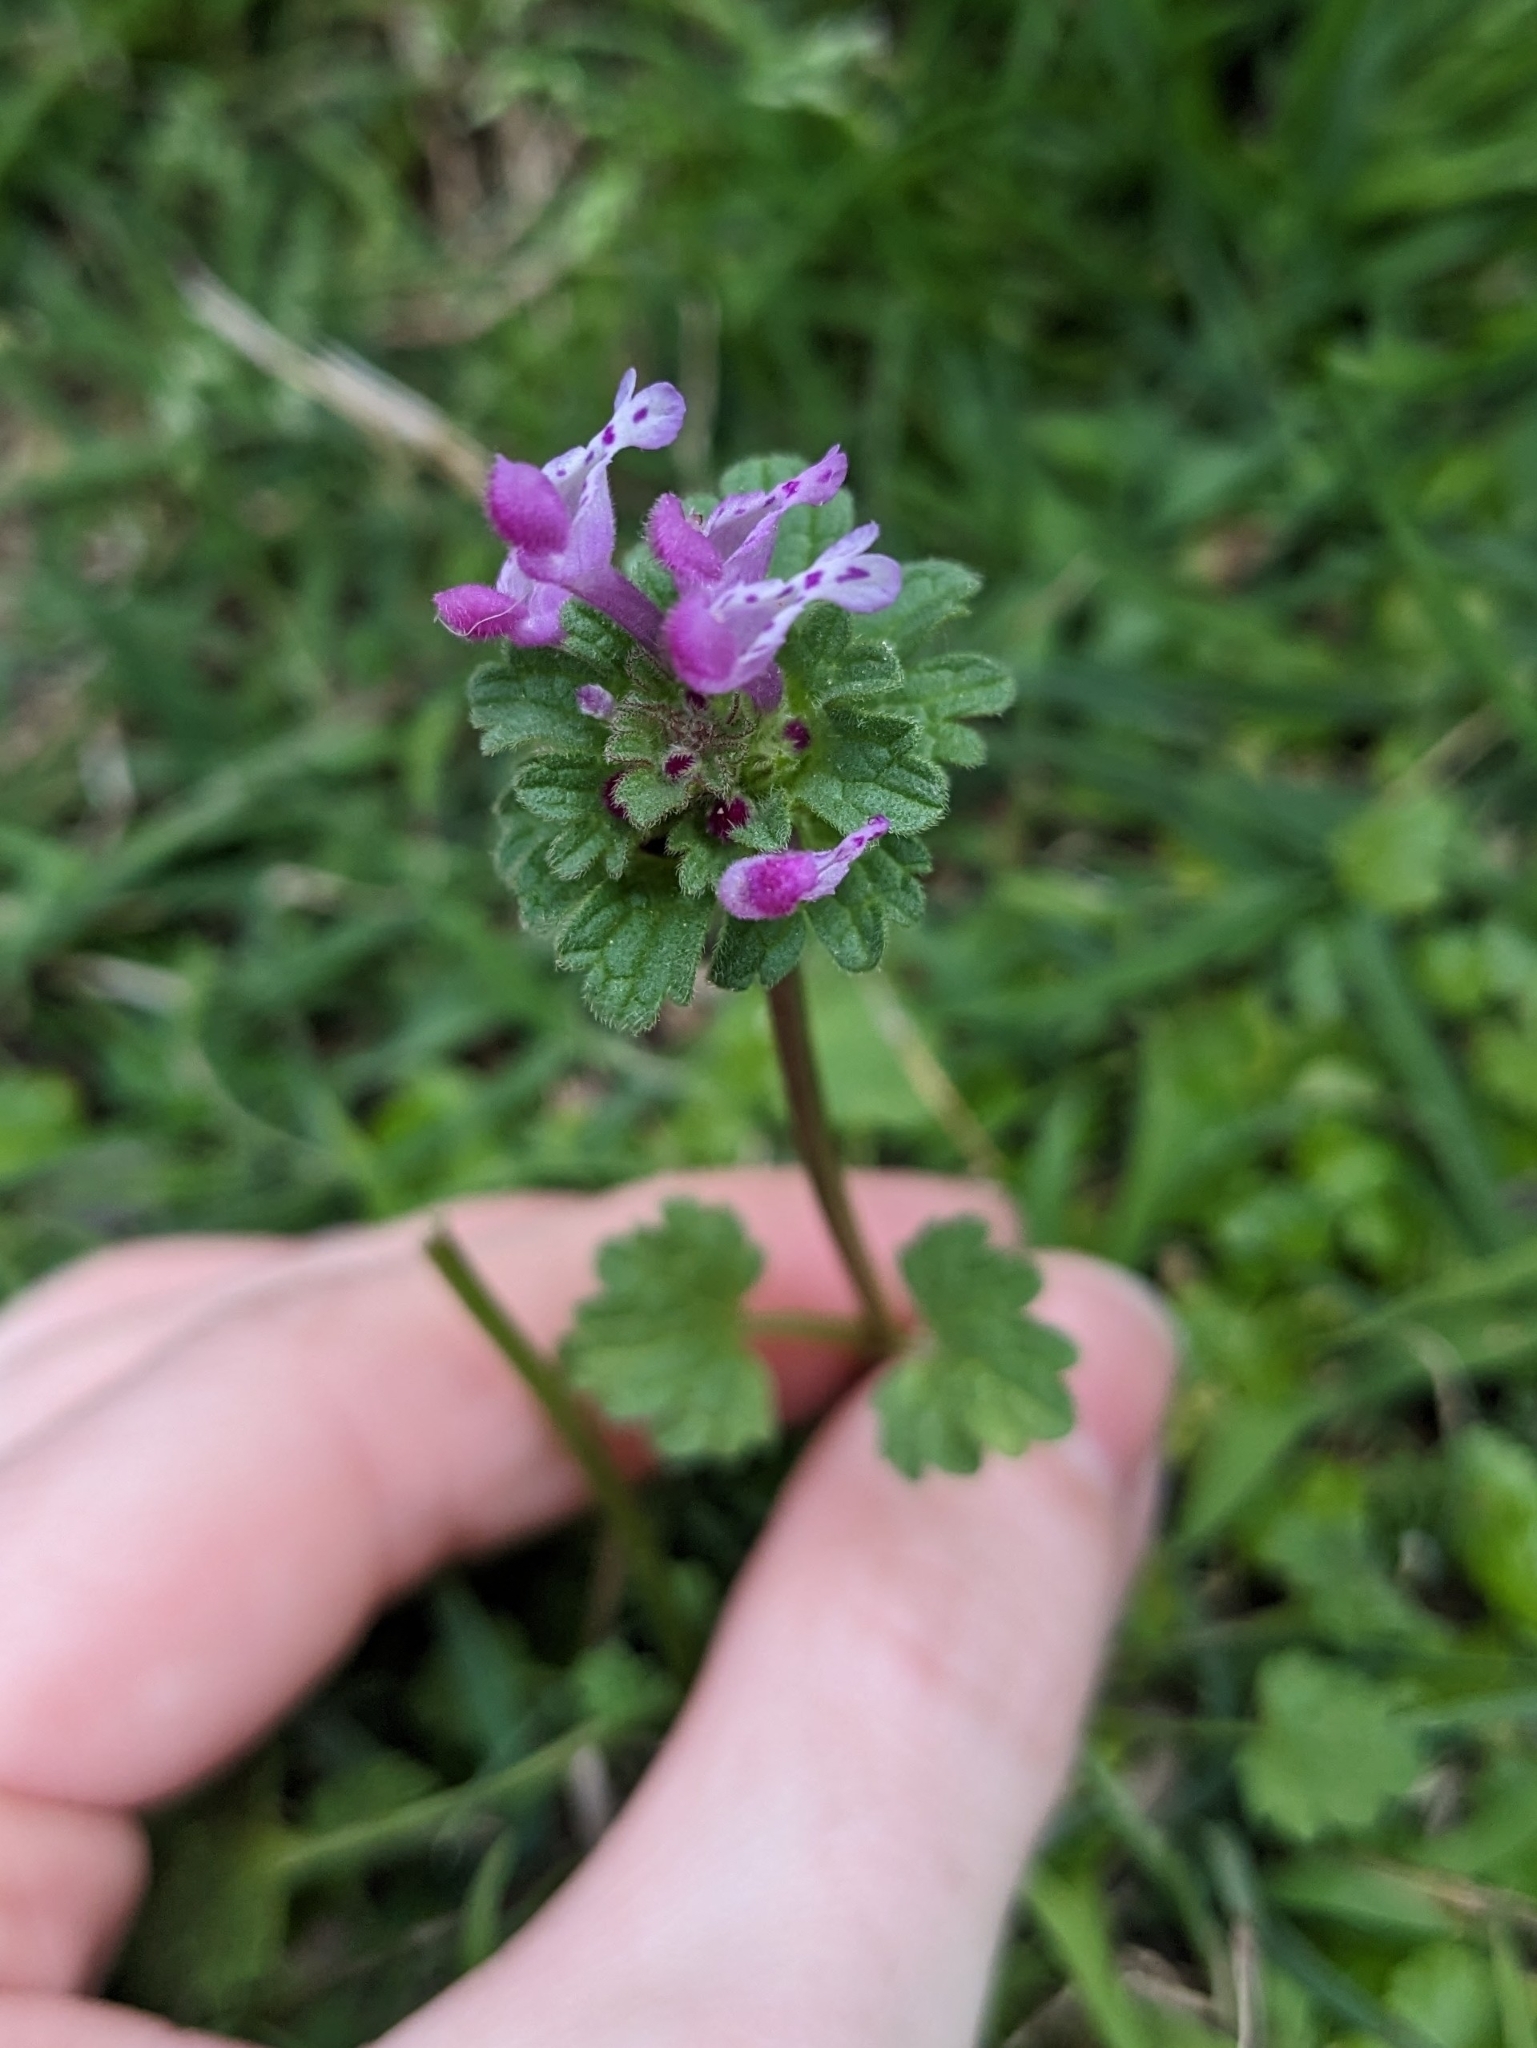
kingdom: Plantae
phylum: Tracheophyta
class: Magnoliopsida
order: Lamiales
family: Lamiaceae
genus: Lamium
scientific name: Lamium amplexicaule
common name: Henbit dead-nettle
